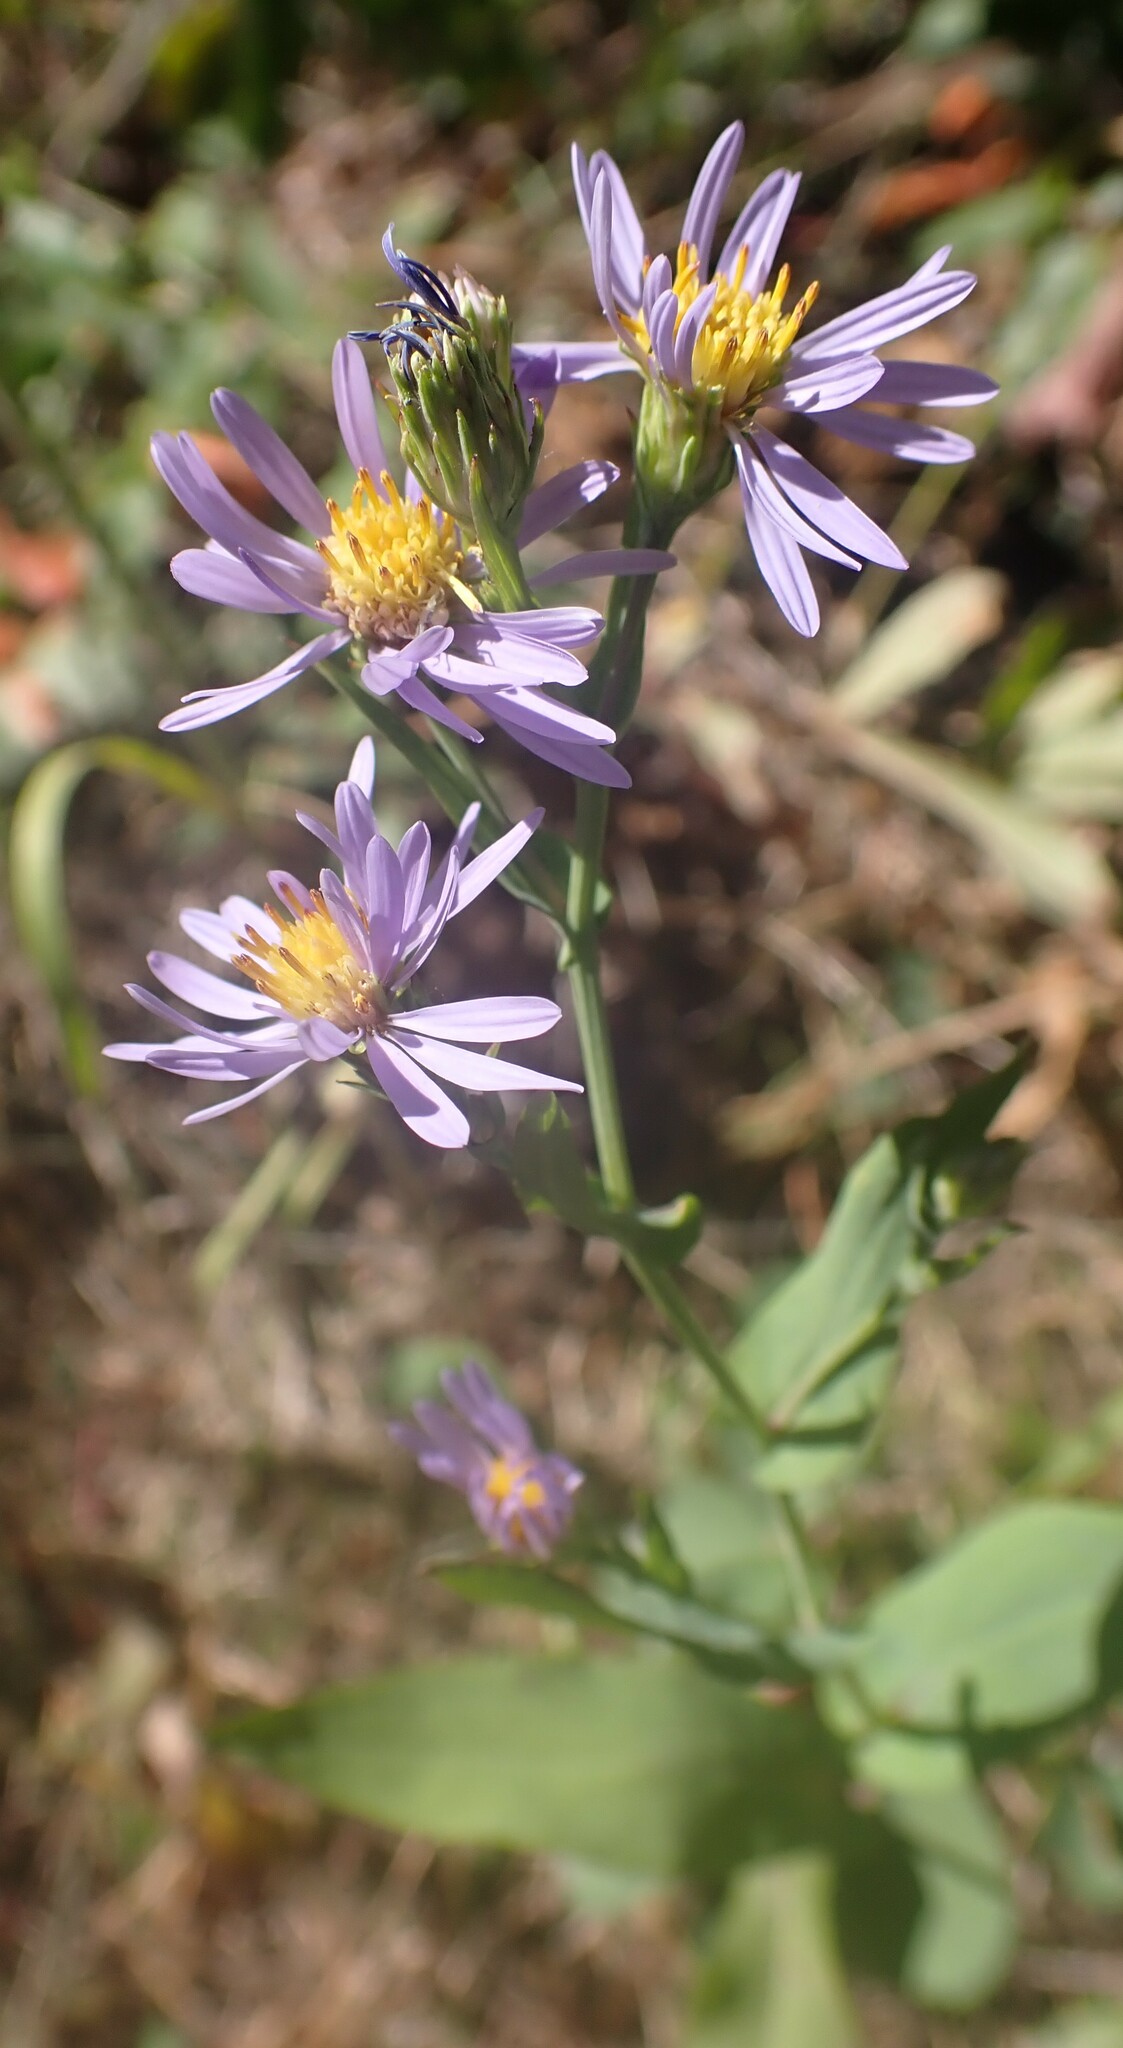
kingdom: Plantae
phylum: Tracheophyta
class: Magnoliopsida
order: Asterales
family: Asteraceae
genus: Symphyotrichum
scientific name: Symphyotrichum laeve
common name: Glaucous aster
